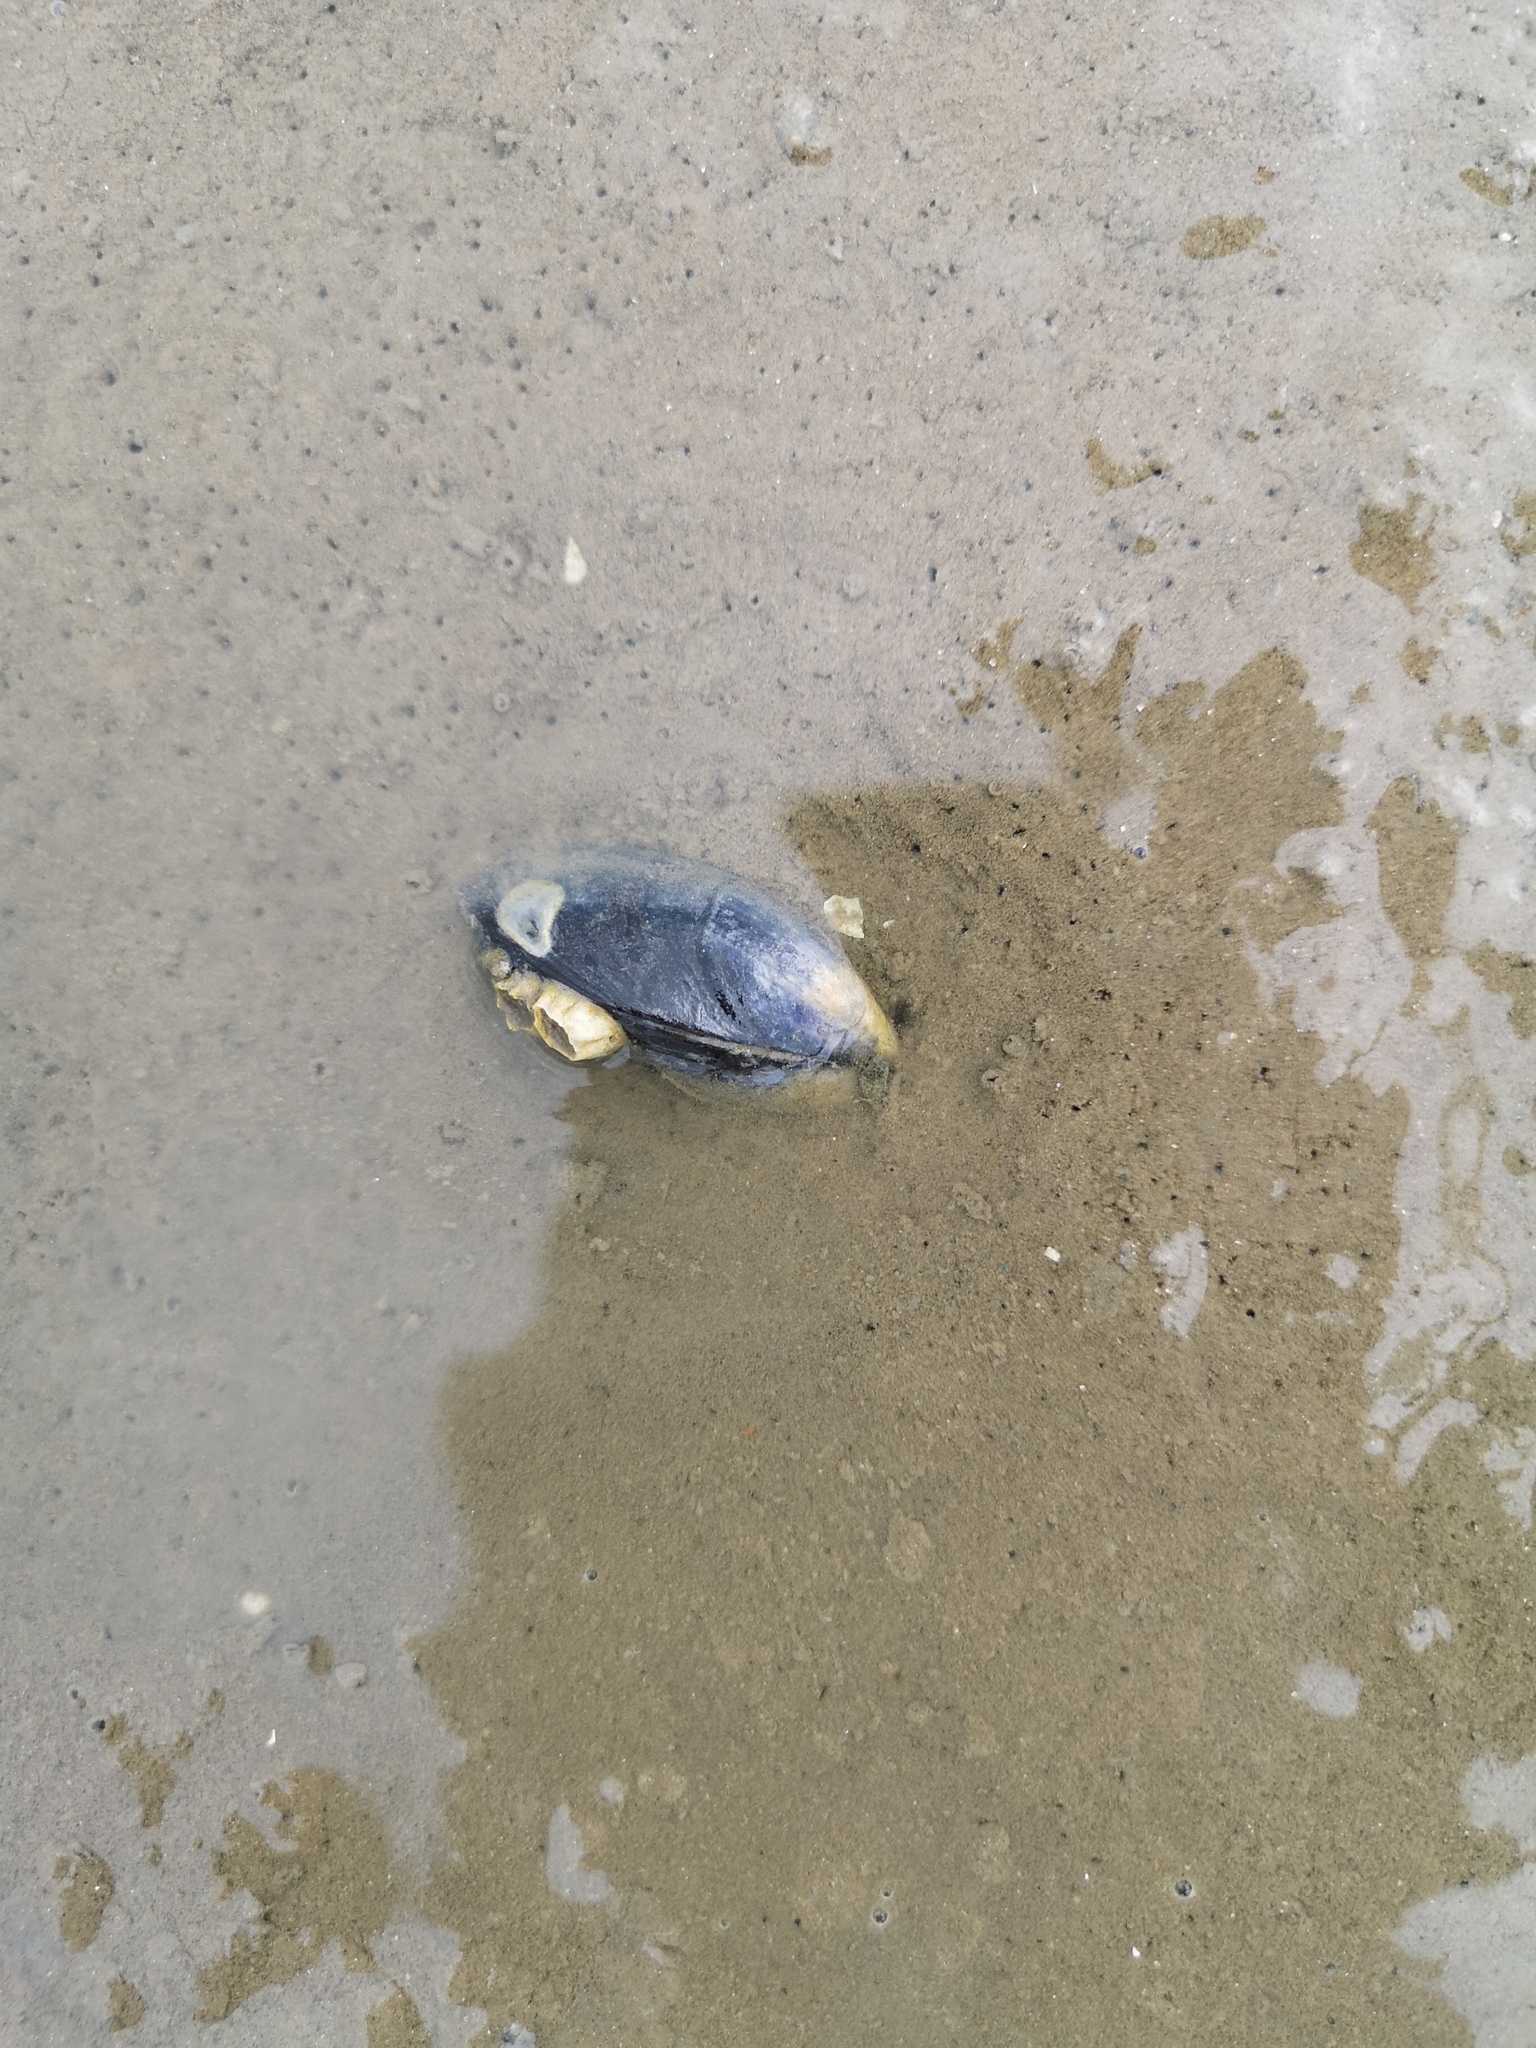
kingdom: Animalia
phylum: Mollusca
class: Bivalvia
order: Mytilida
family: Mytilidae
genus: Mytilus
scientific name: Mytilus edulis
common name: Blue mussel
